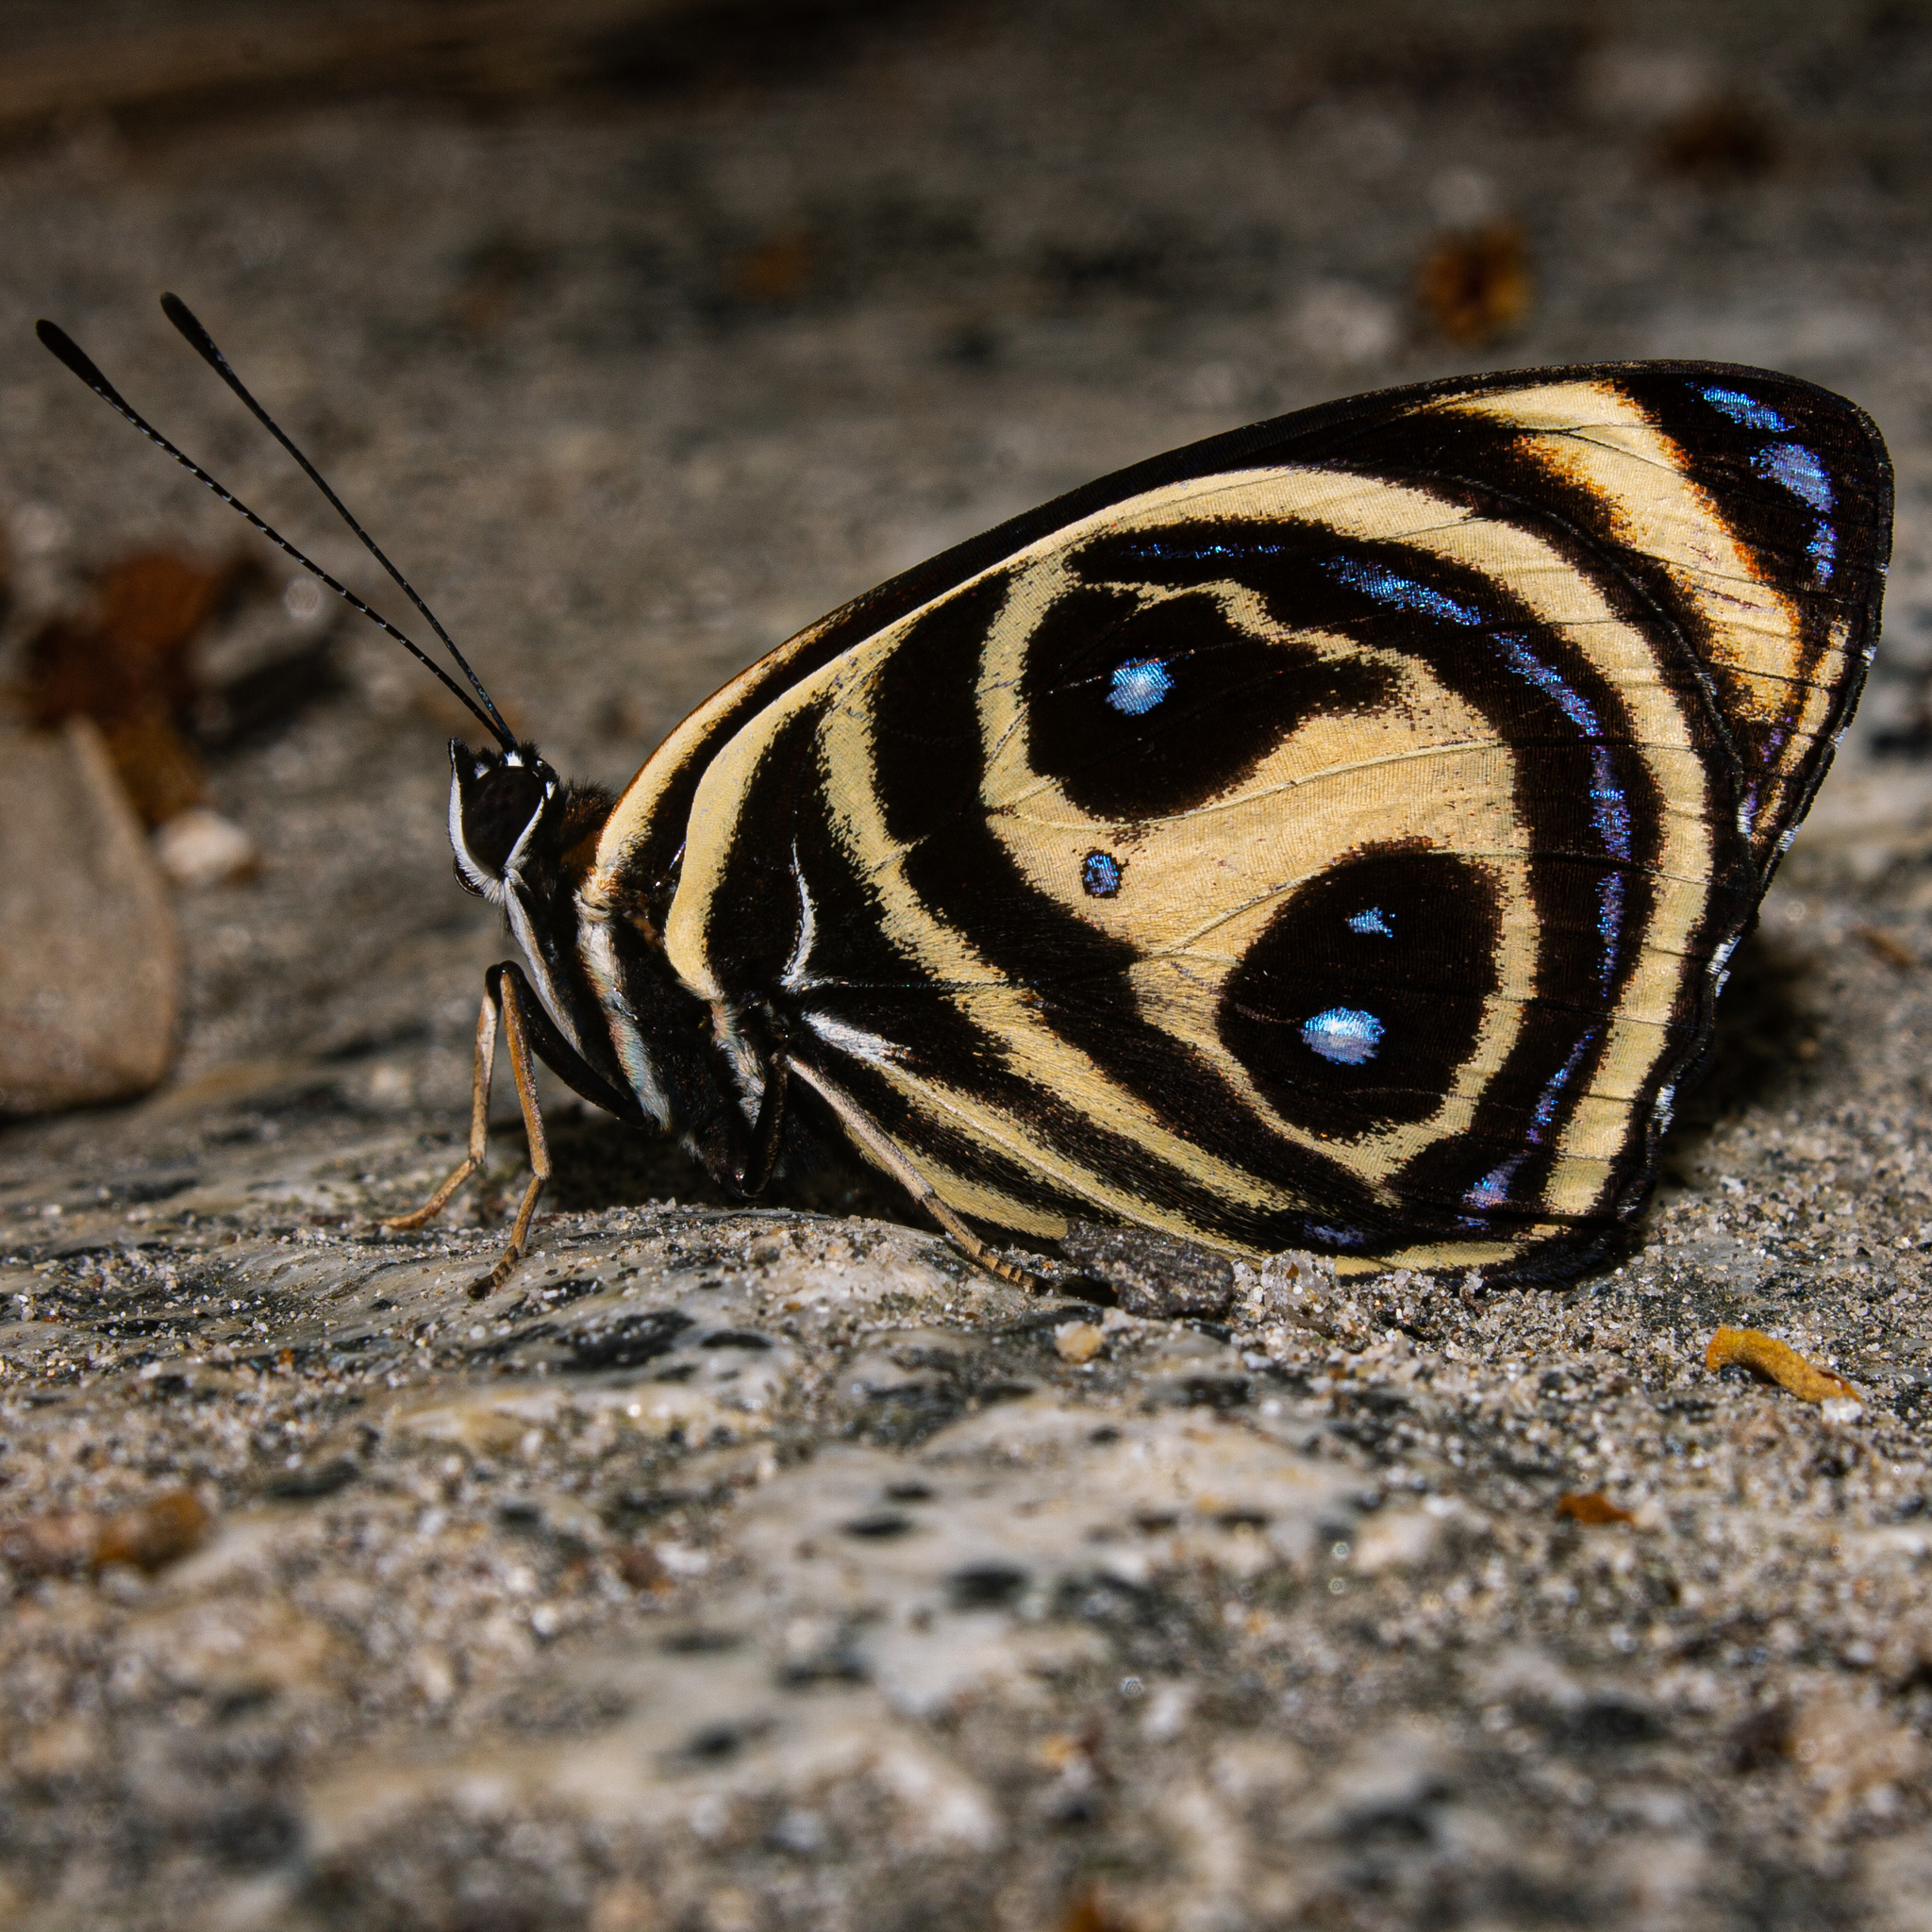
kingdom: Animalia
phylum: Arthropoda
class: Insecta
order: Lepidoptera
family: Nymphalidae
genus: Catagramma
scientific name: Catagramma texa
